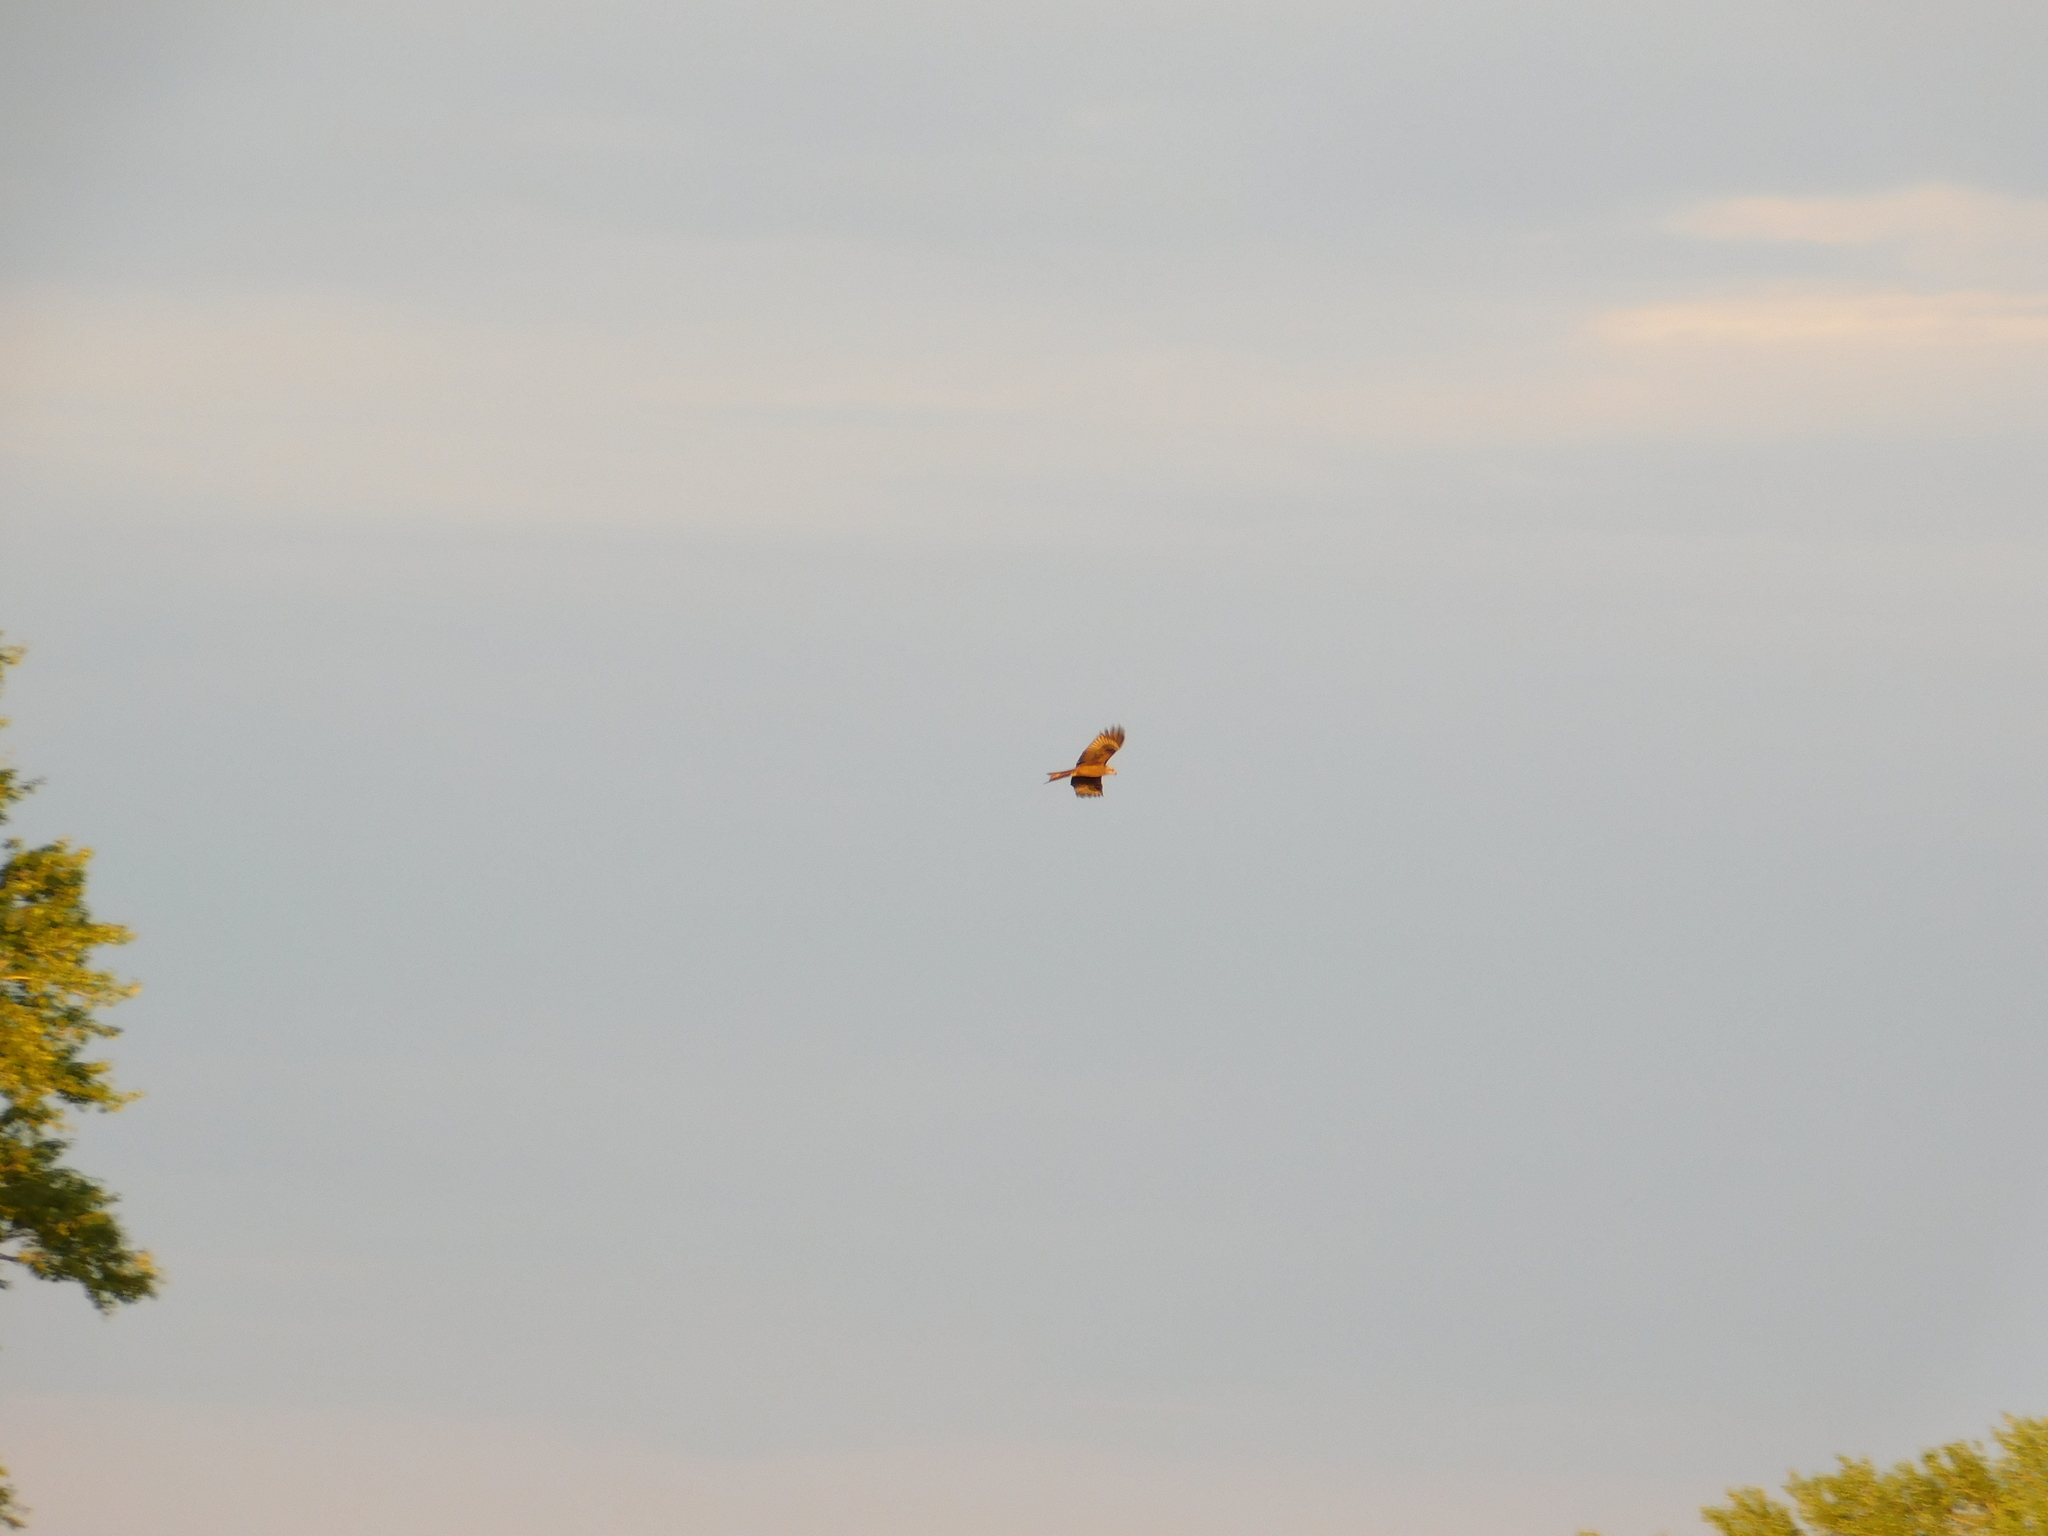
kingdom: Animalia
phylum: Chordata
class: Aves
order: Accipitriformes
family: Accipitridae
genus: Milvus
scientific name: Milvus migrans
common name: Black kite
